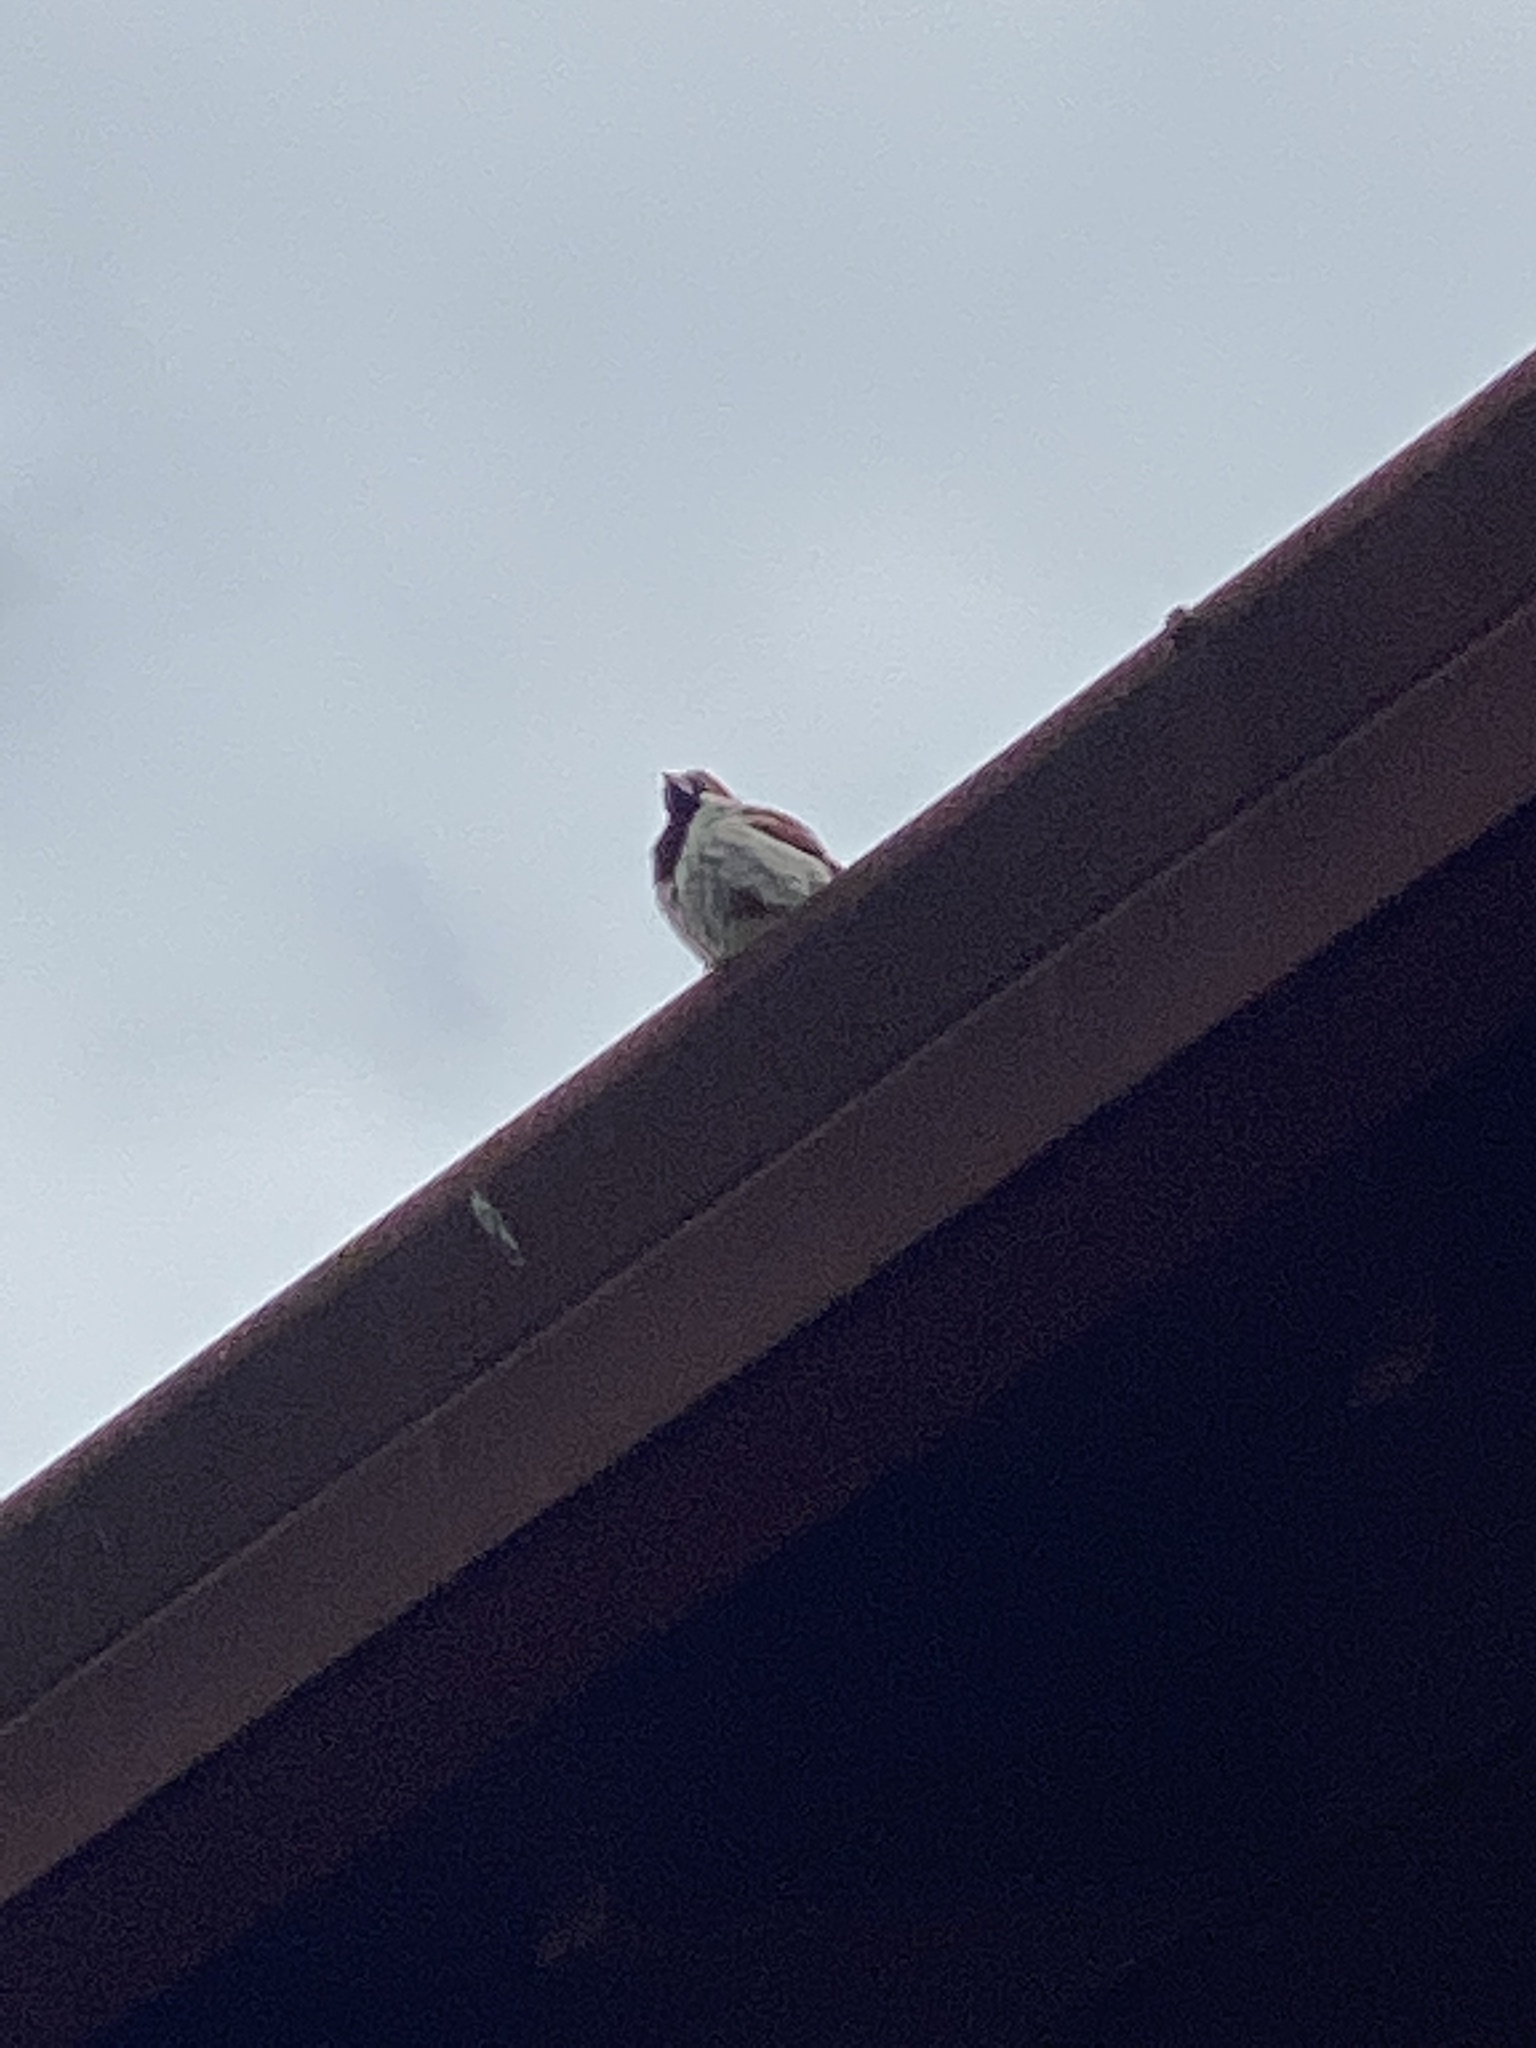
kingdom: Animalia
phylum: Chordata
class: Aves
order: Passeriformes
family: Passeridae
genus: Passer
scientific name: Passer domesticus
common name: House sparrow
